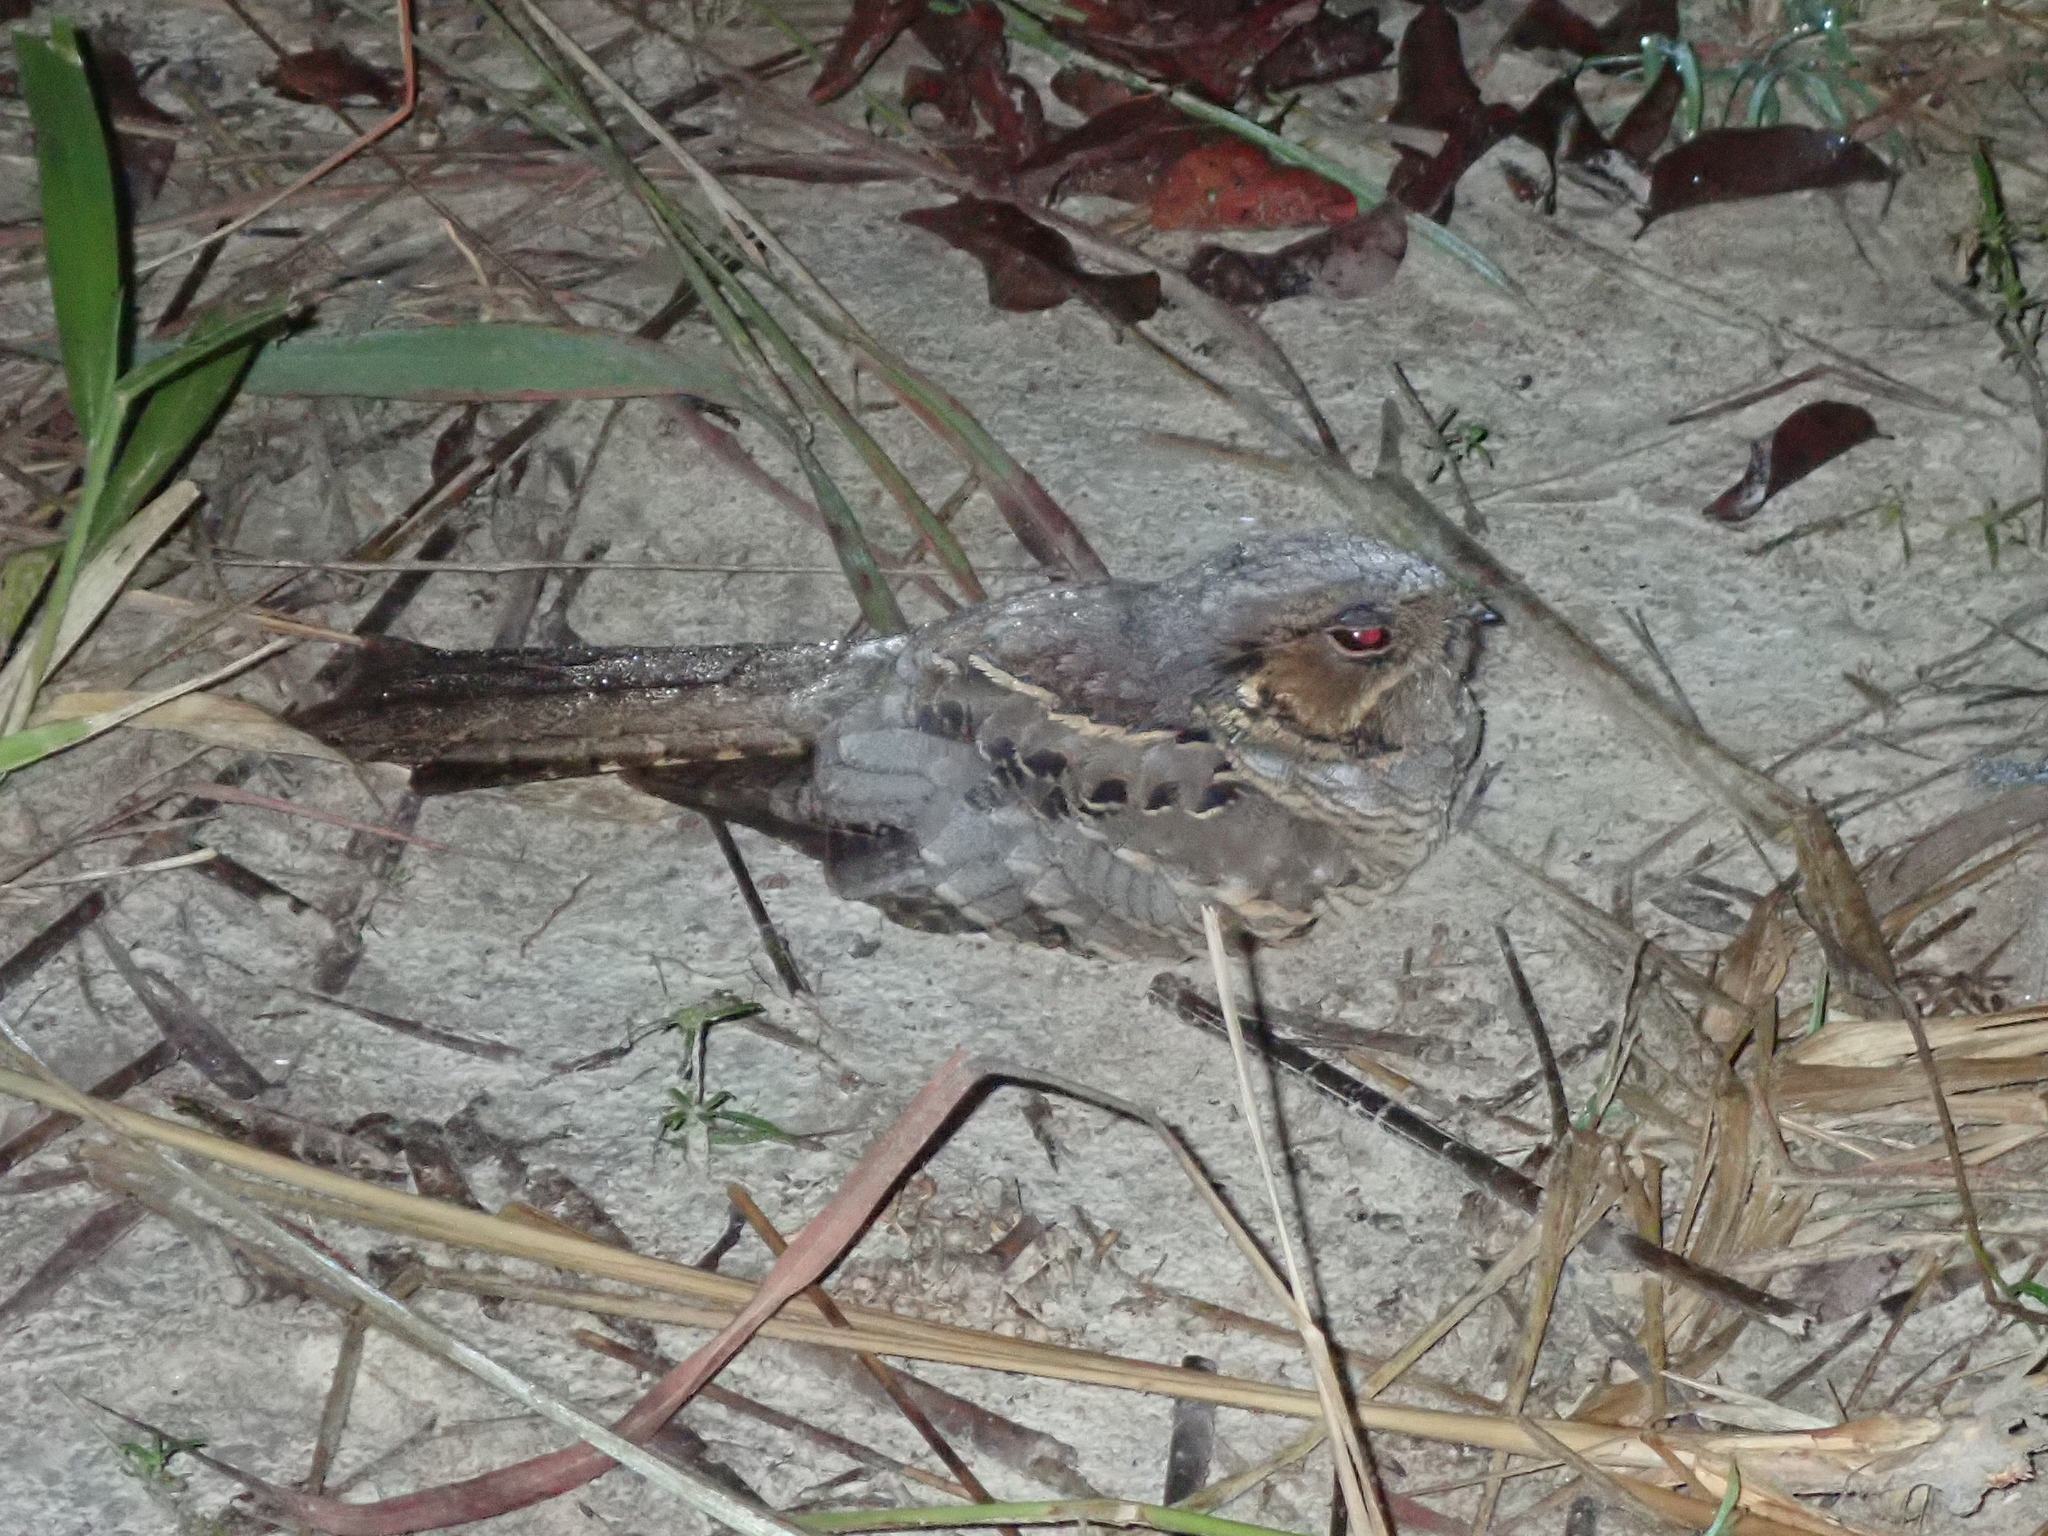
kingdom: Animalia
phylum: Chordata
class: Aves
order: Caprimulgiformes
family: Caprimulgidae
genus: Nyctidromus
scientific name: Nyctidromus albicollis
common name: Pauraque
